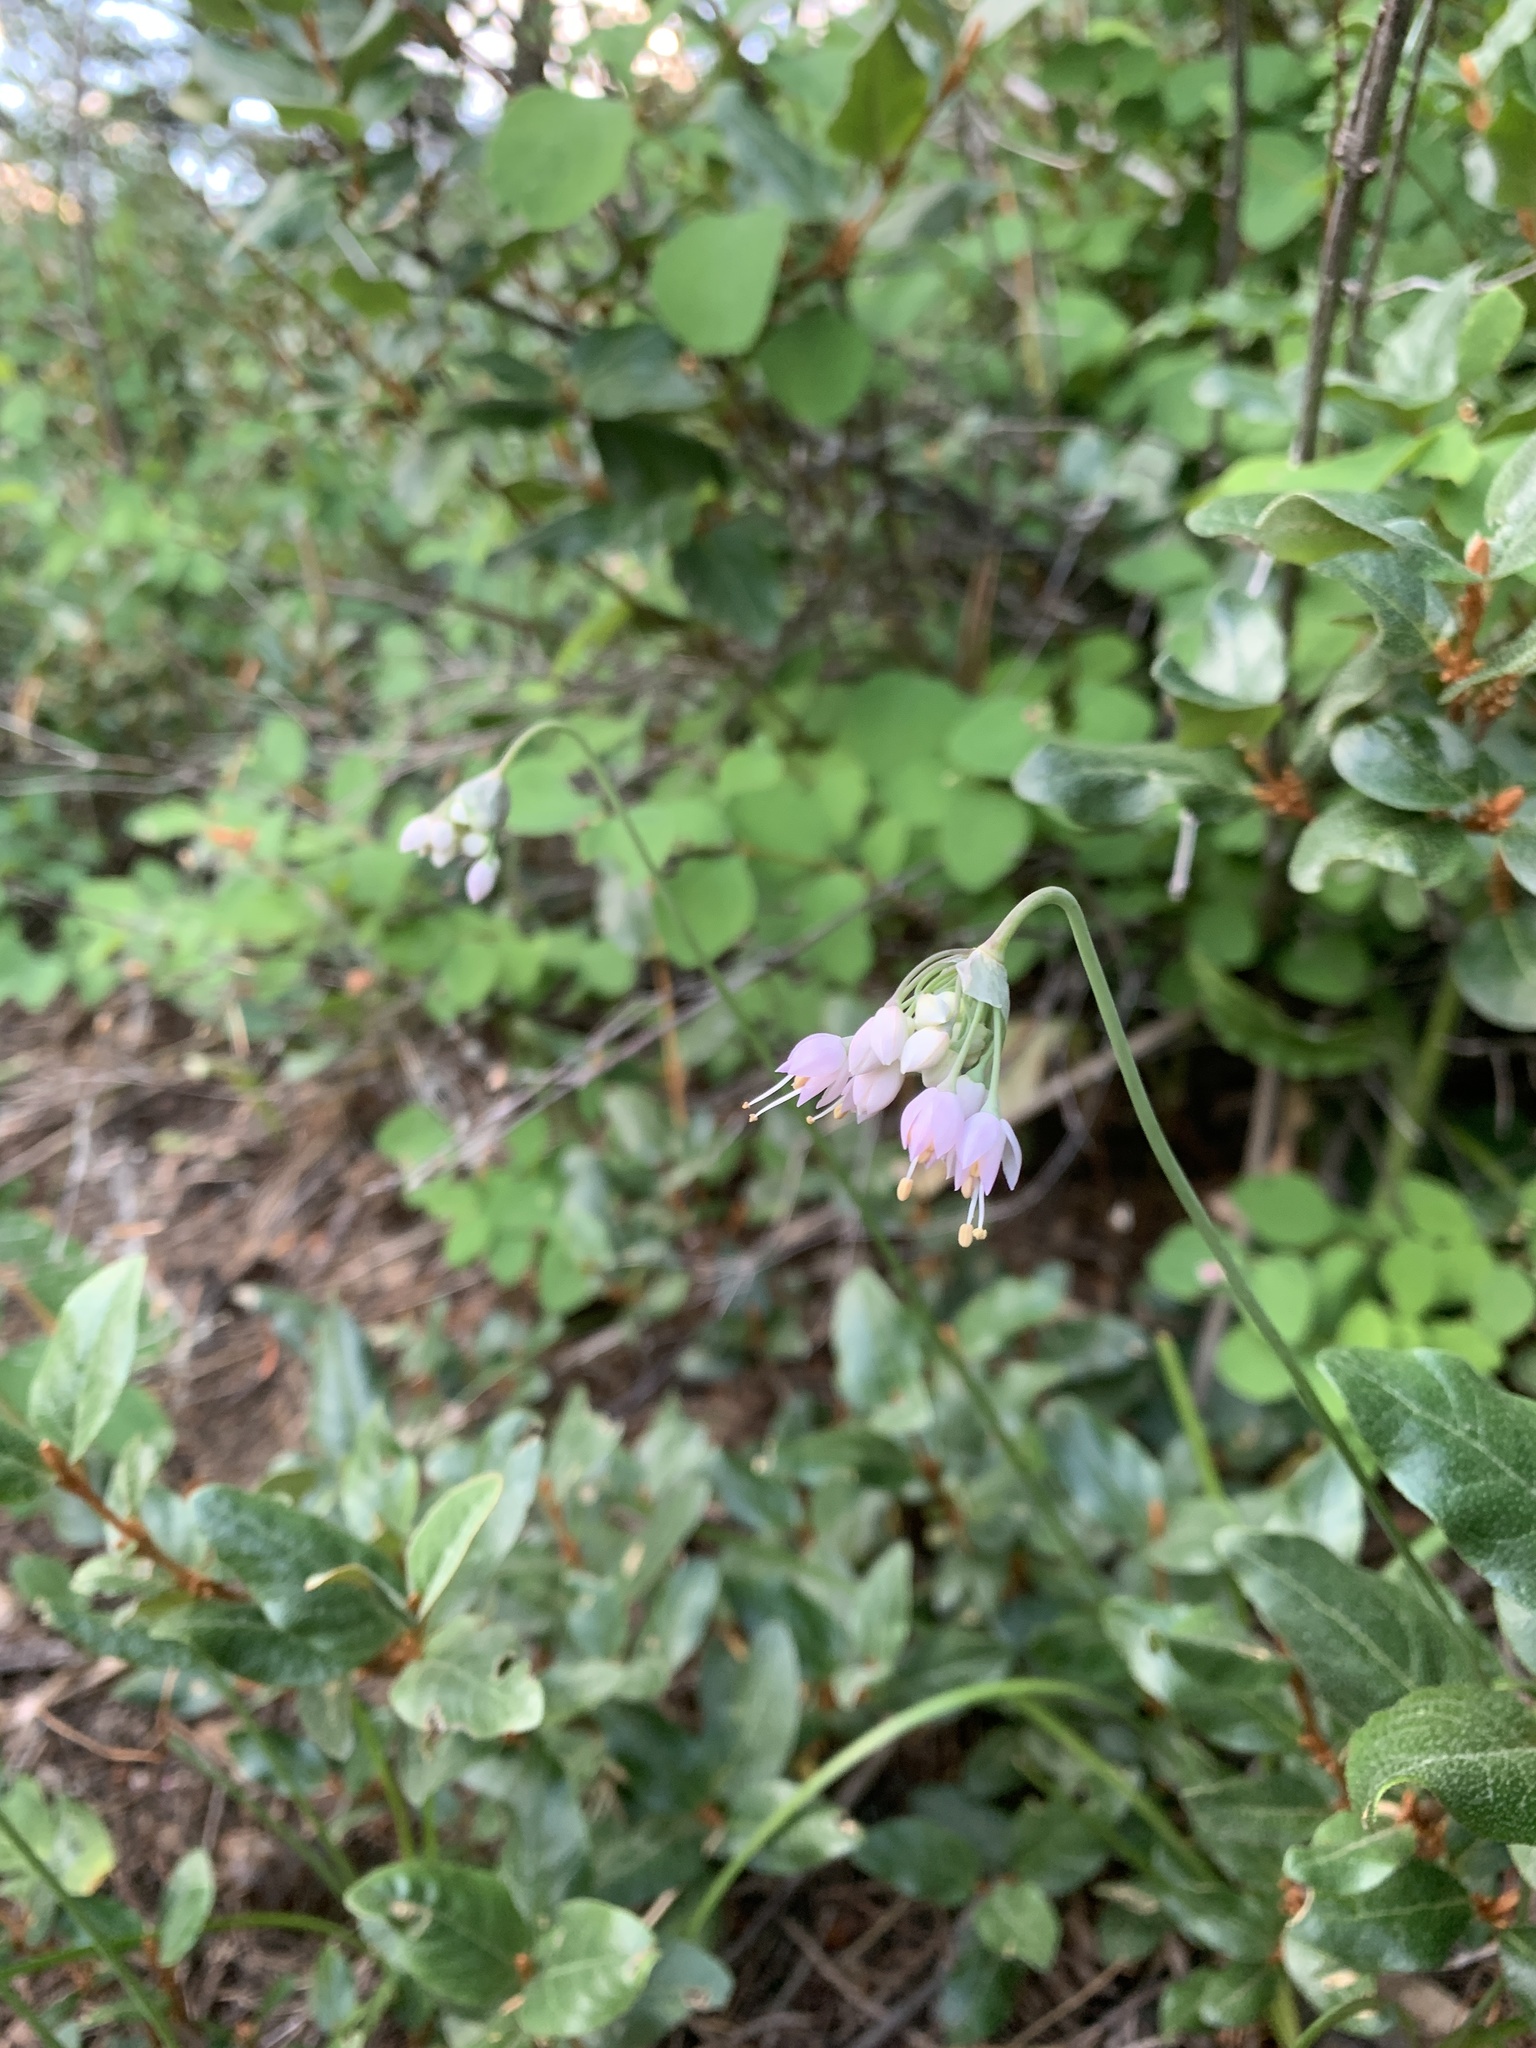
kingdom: Plantae
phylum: Tracheophyta
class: Liliopsida
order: Asparagales
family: Amaryllidaceae
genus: Allium
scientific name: Allium cernuum
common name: Nodding onion
